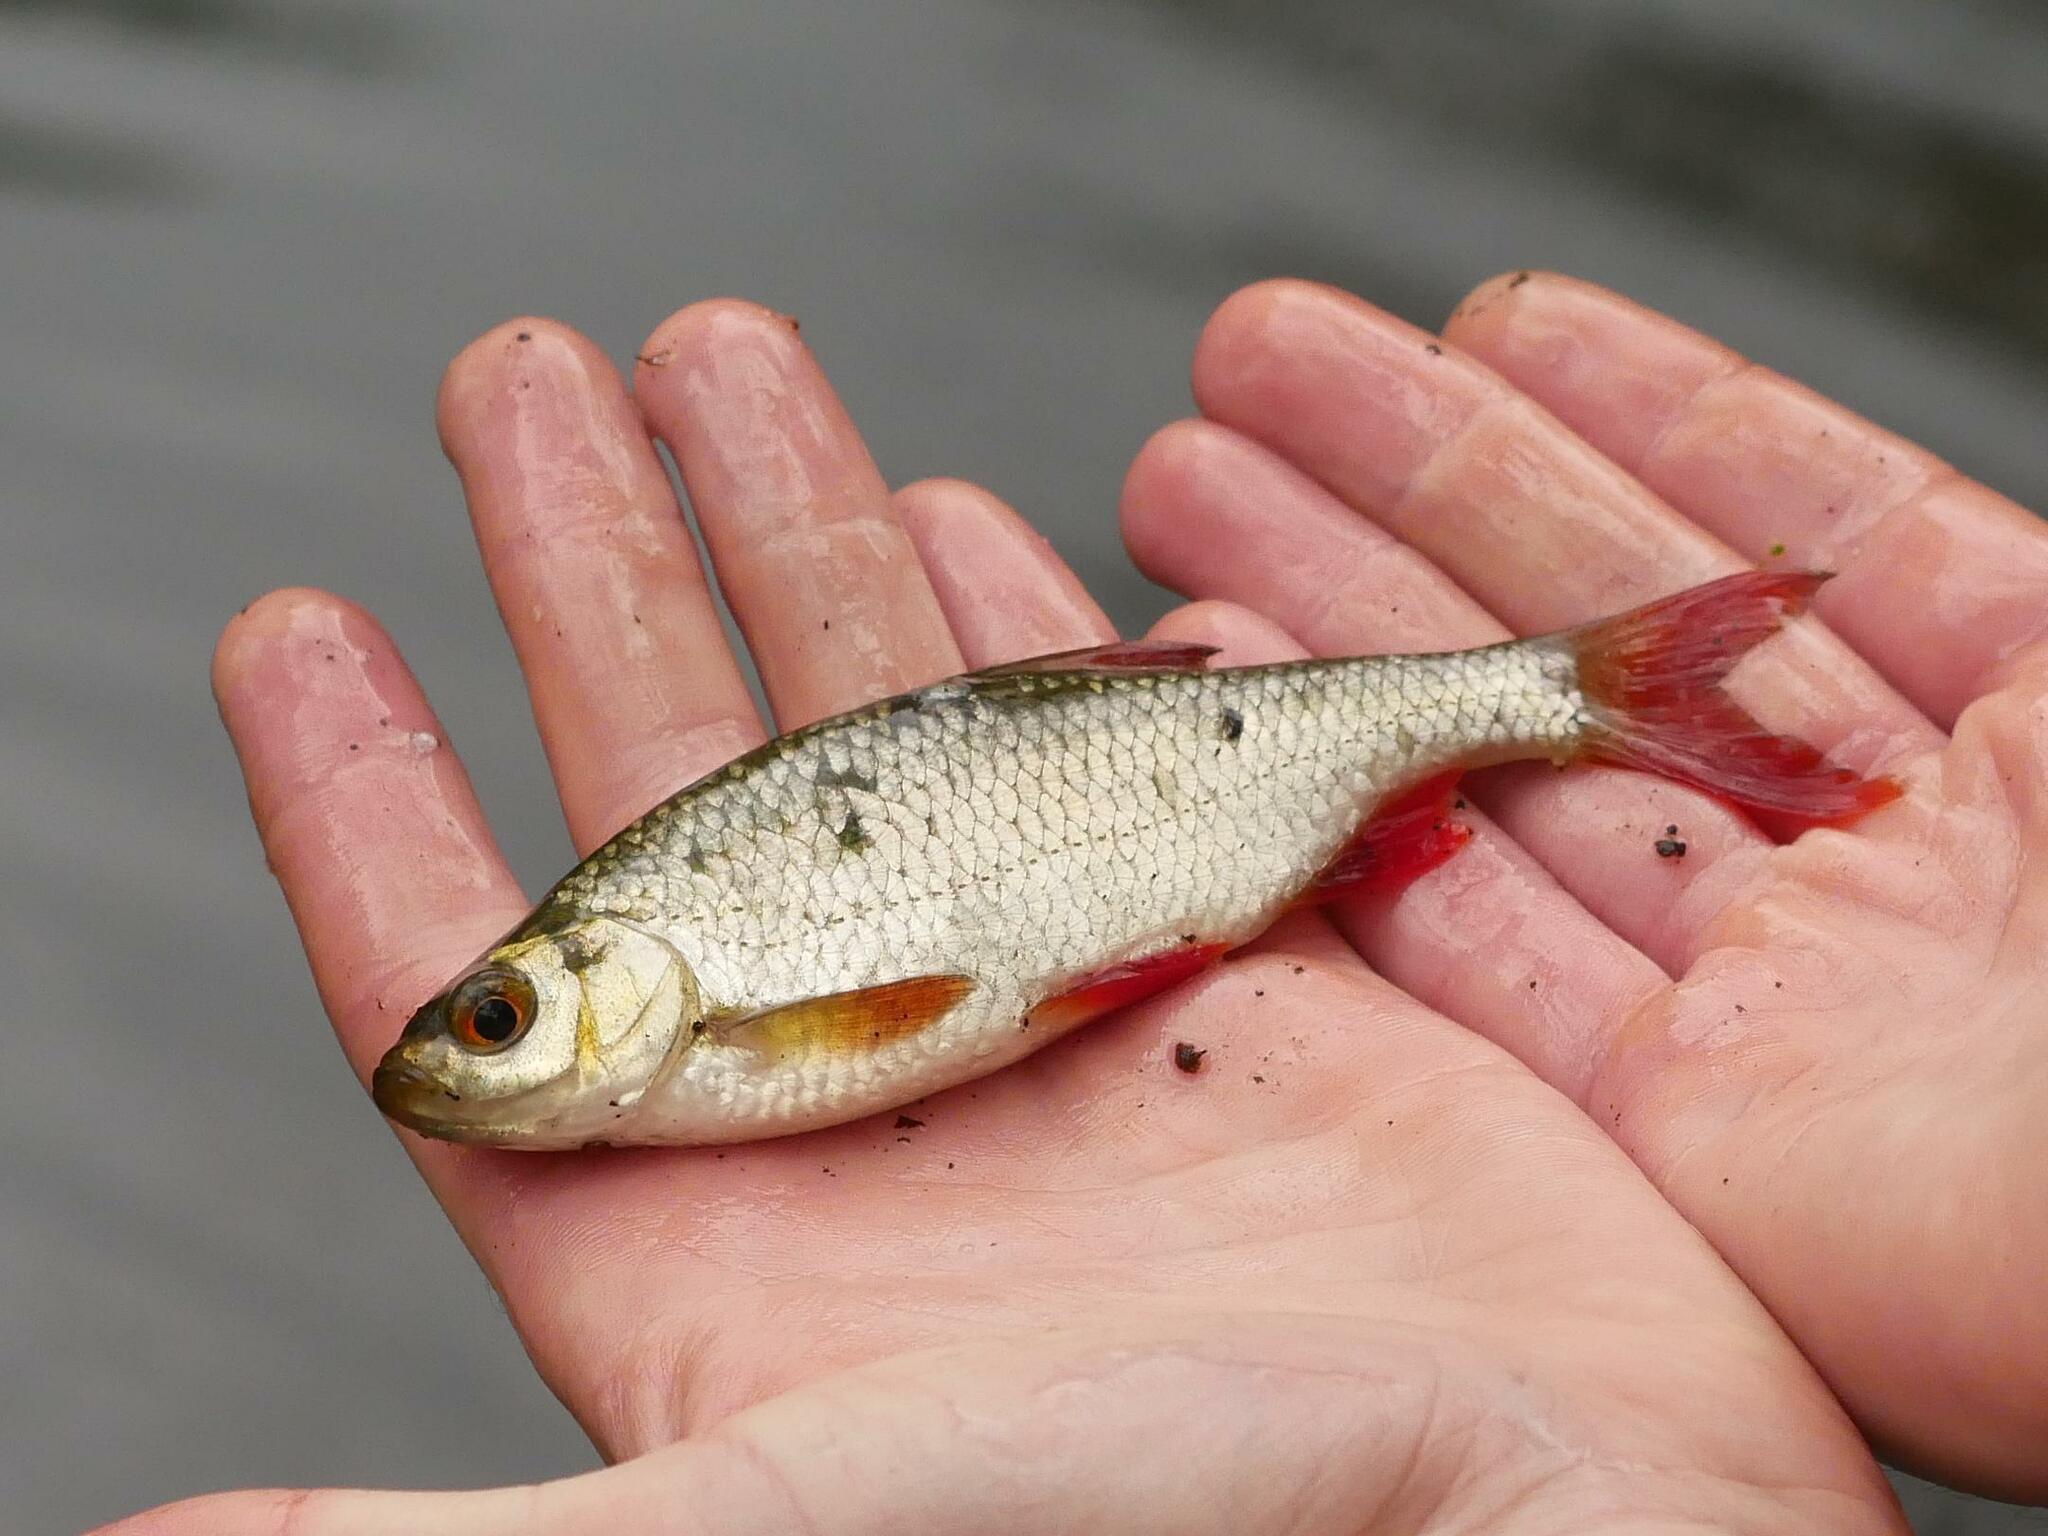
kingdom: Animalia
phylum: Chordata
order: Cypriniformes
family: Cyprinidae
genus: Scardinius
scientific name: Scardinius erythrophthalmus
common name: Rudd
